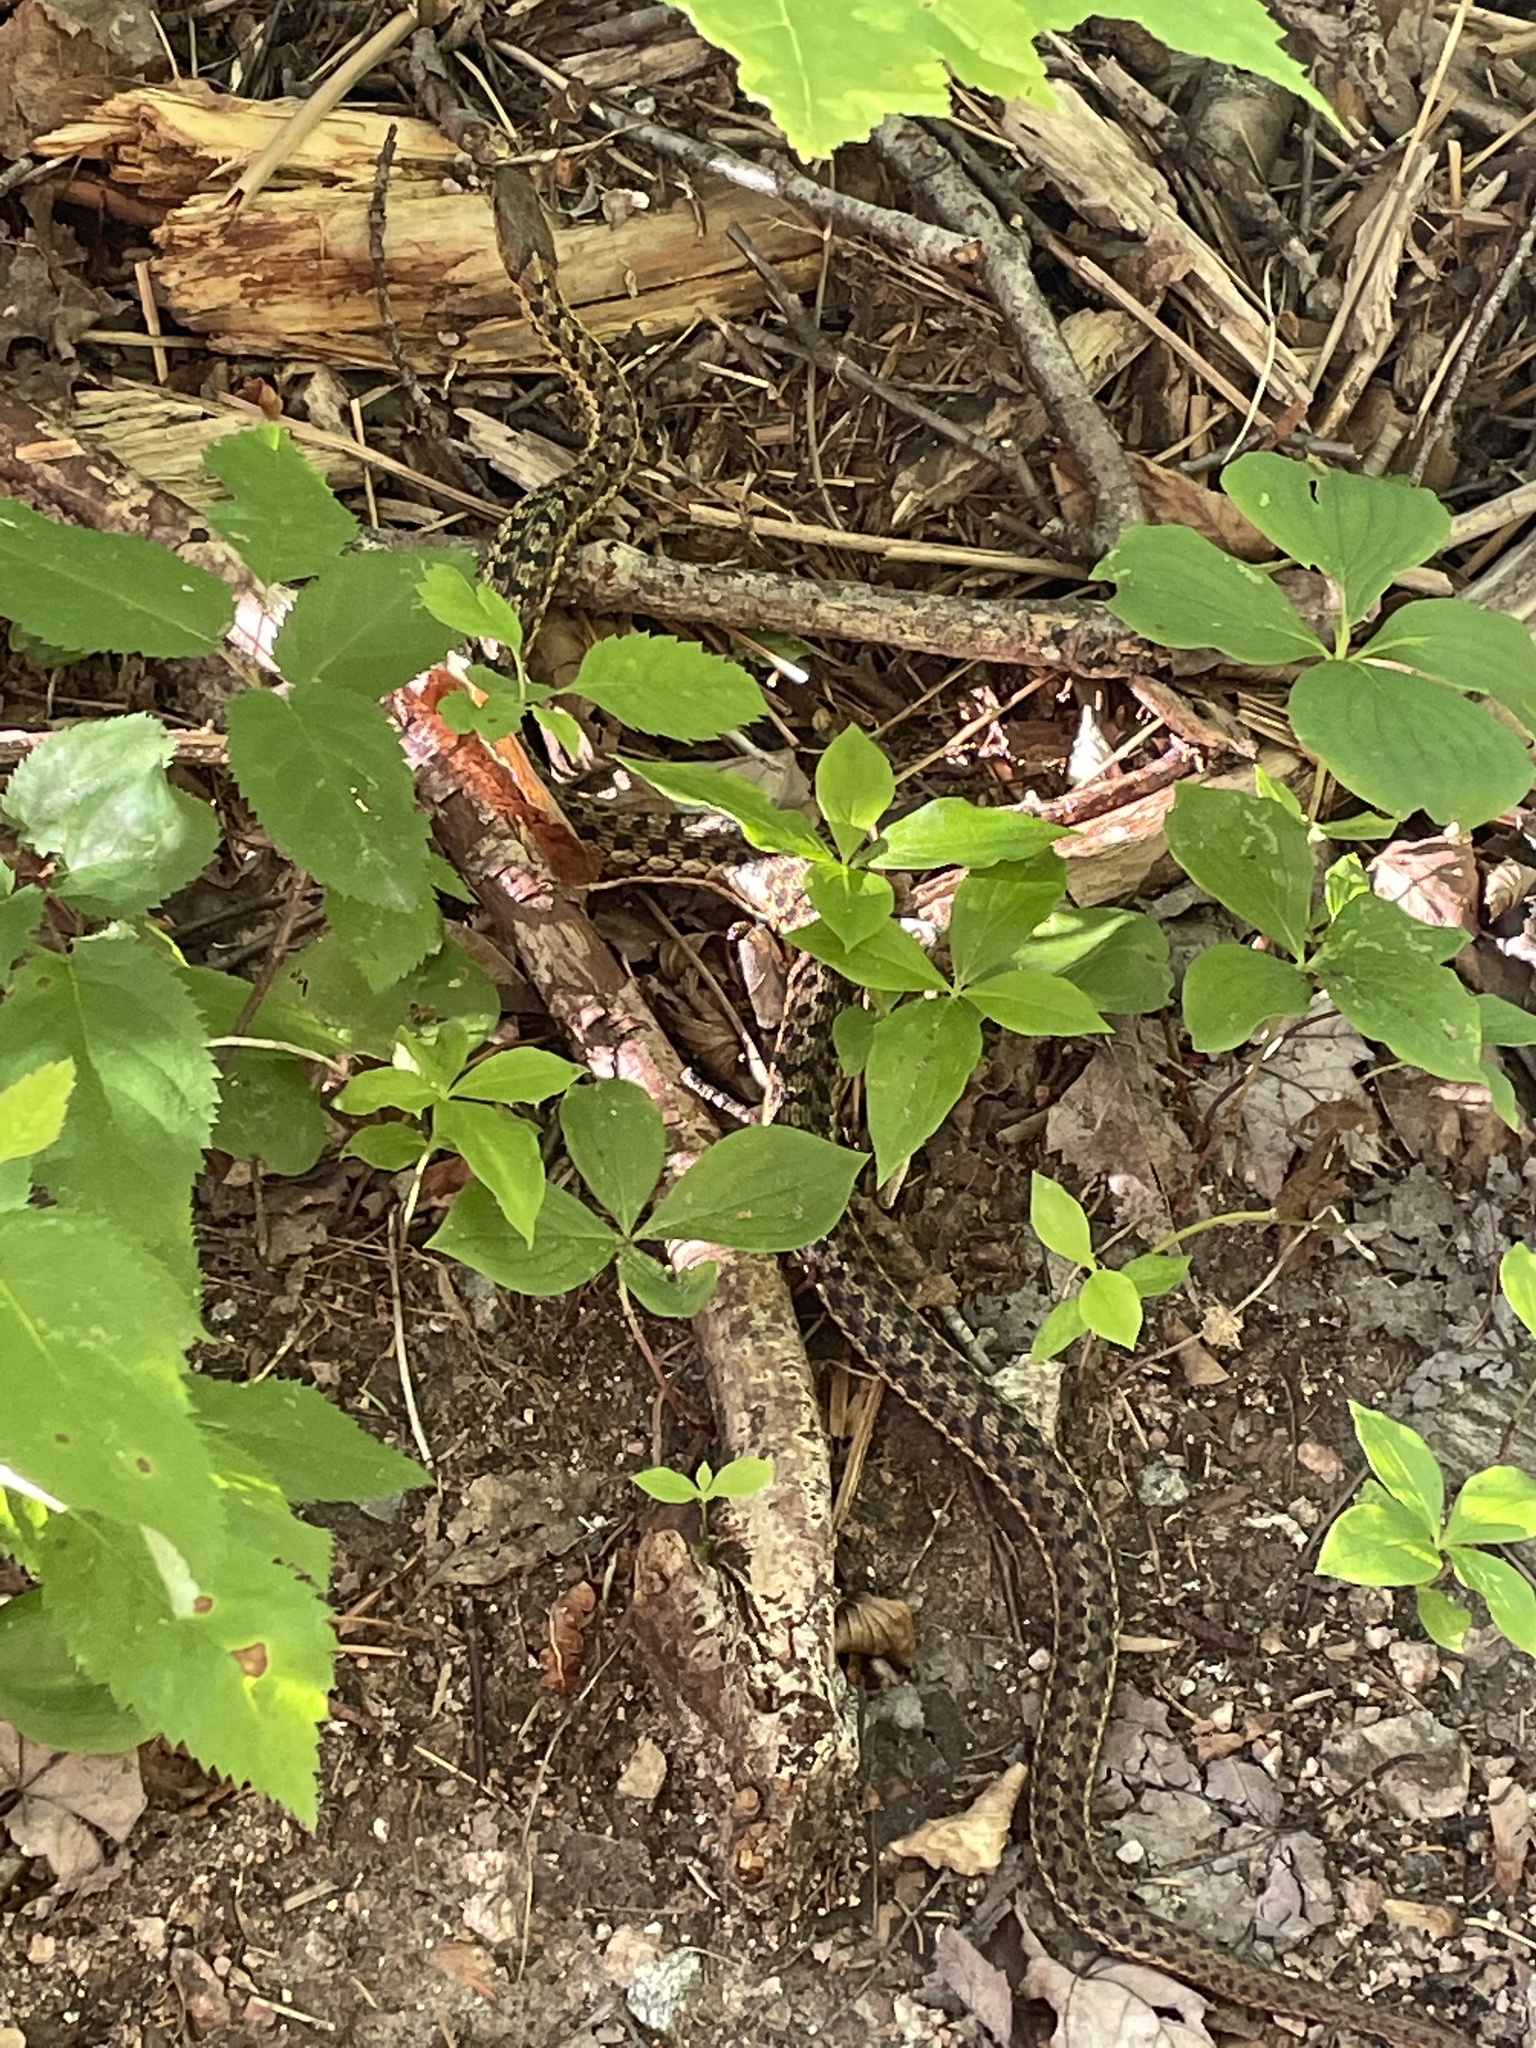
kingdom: Animalia
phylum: Chordata
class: Squamata
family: Colubridae
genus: Thamnophis
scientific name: Thamnophis sirtalis
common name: Common garter snake
